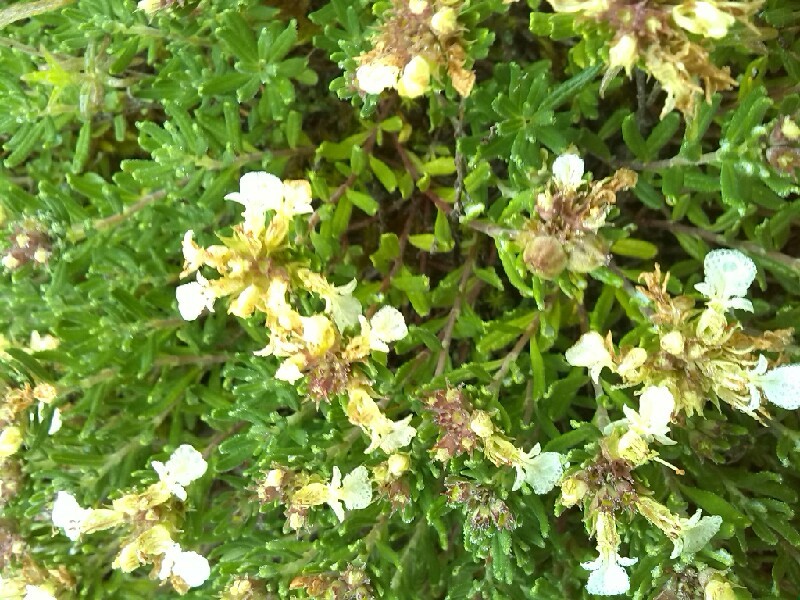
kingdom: Plantae
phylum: Tracheophyta
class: Magnoliopsida
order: Lamiales
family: Lamiaceae
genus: Teucrium
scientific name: Teucrium montanum
